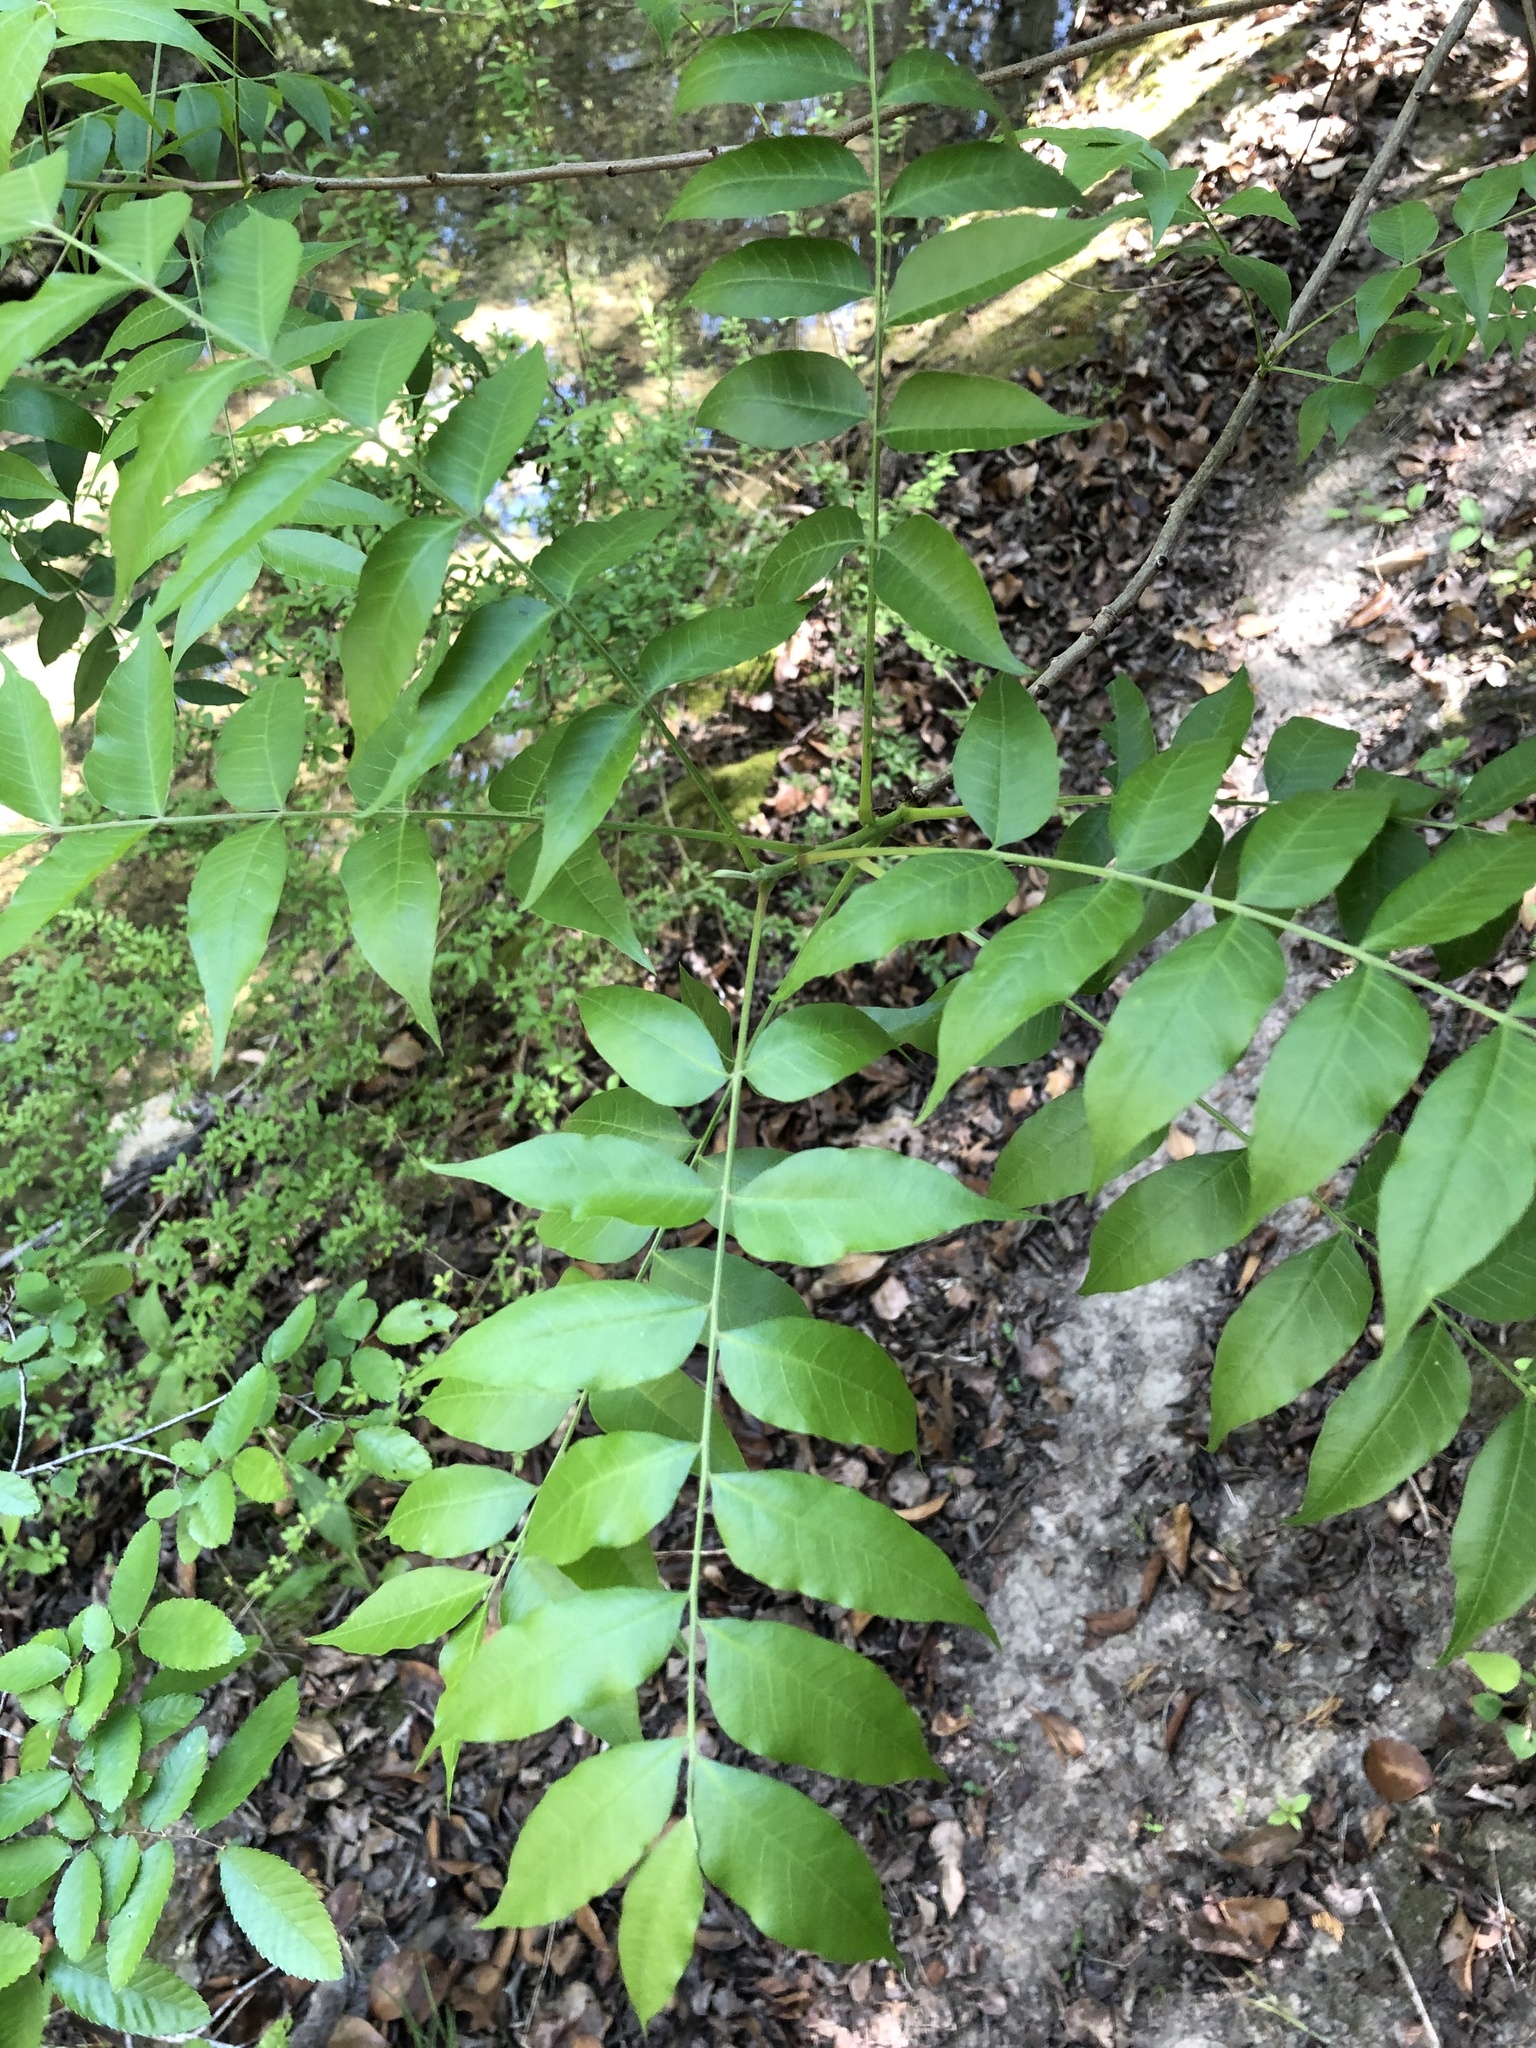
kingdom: Plantae
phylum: Tracheophyta
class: Magnoliopsida
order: Sapindales
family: Sapindaceae
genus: Sapindus
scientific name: Sapindus drummondii
